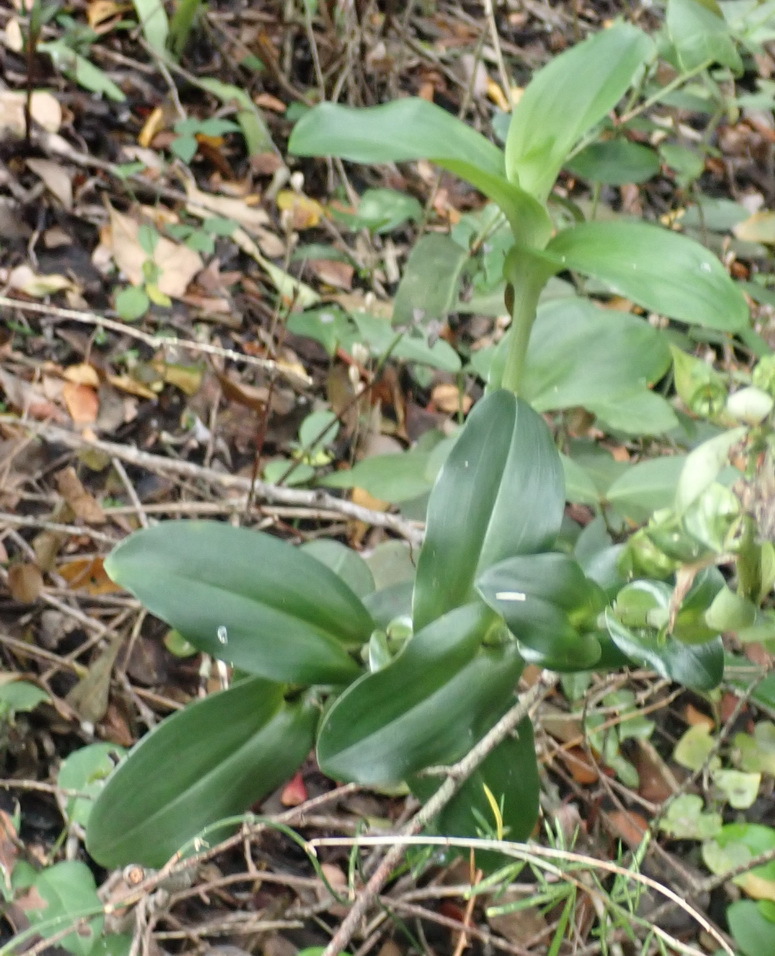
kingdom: Plantae
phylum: Tracheophyta
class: Liliopsida
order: Asparagales
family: Orchidaceae
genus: Bonatea
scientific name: Bonatea speciosa
